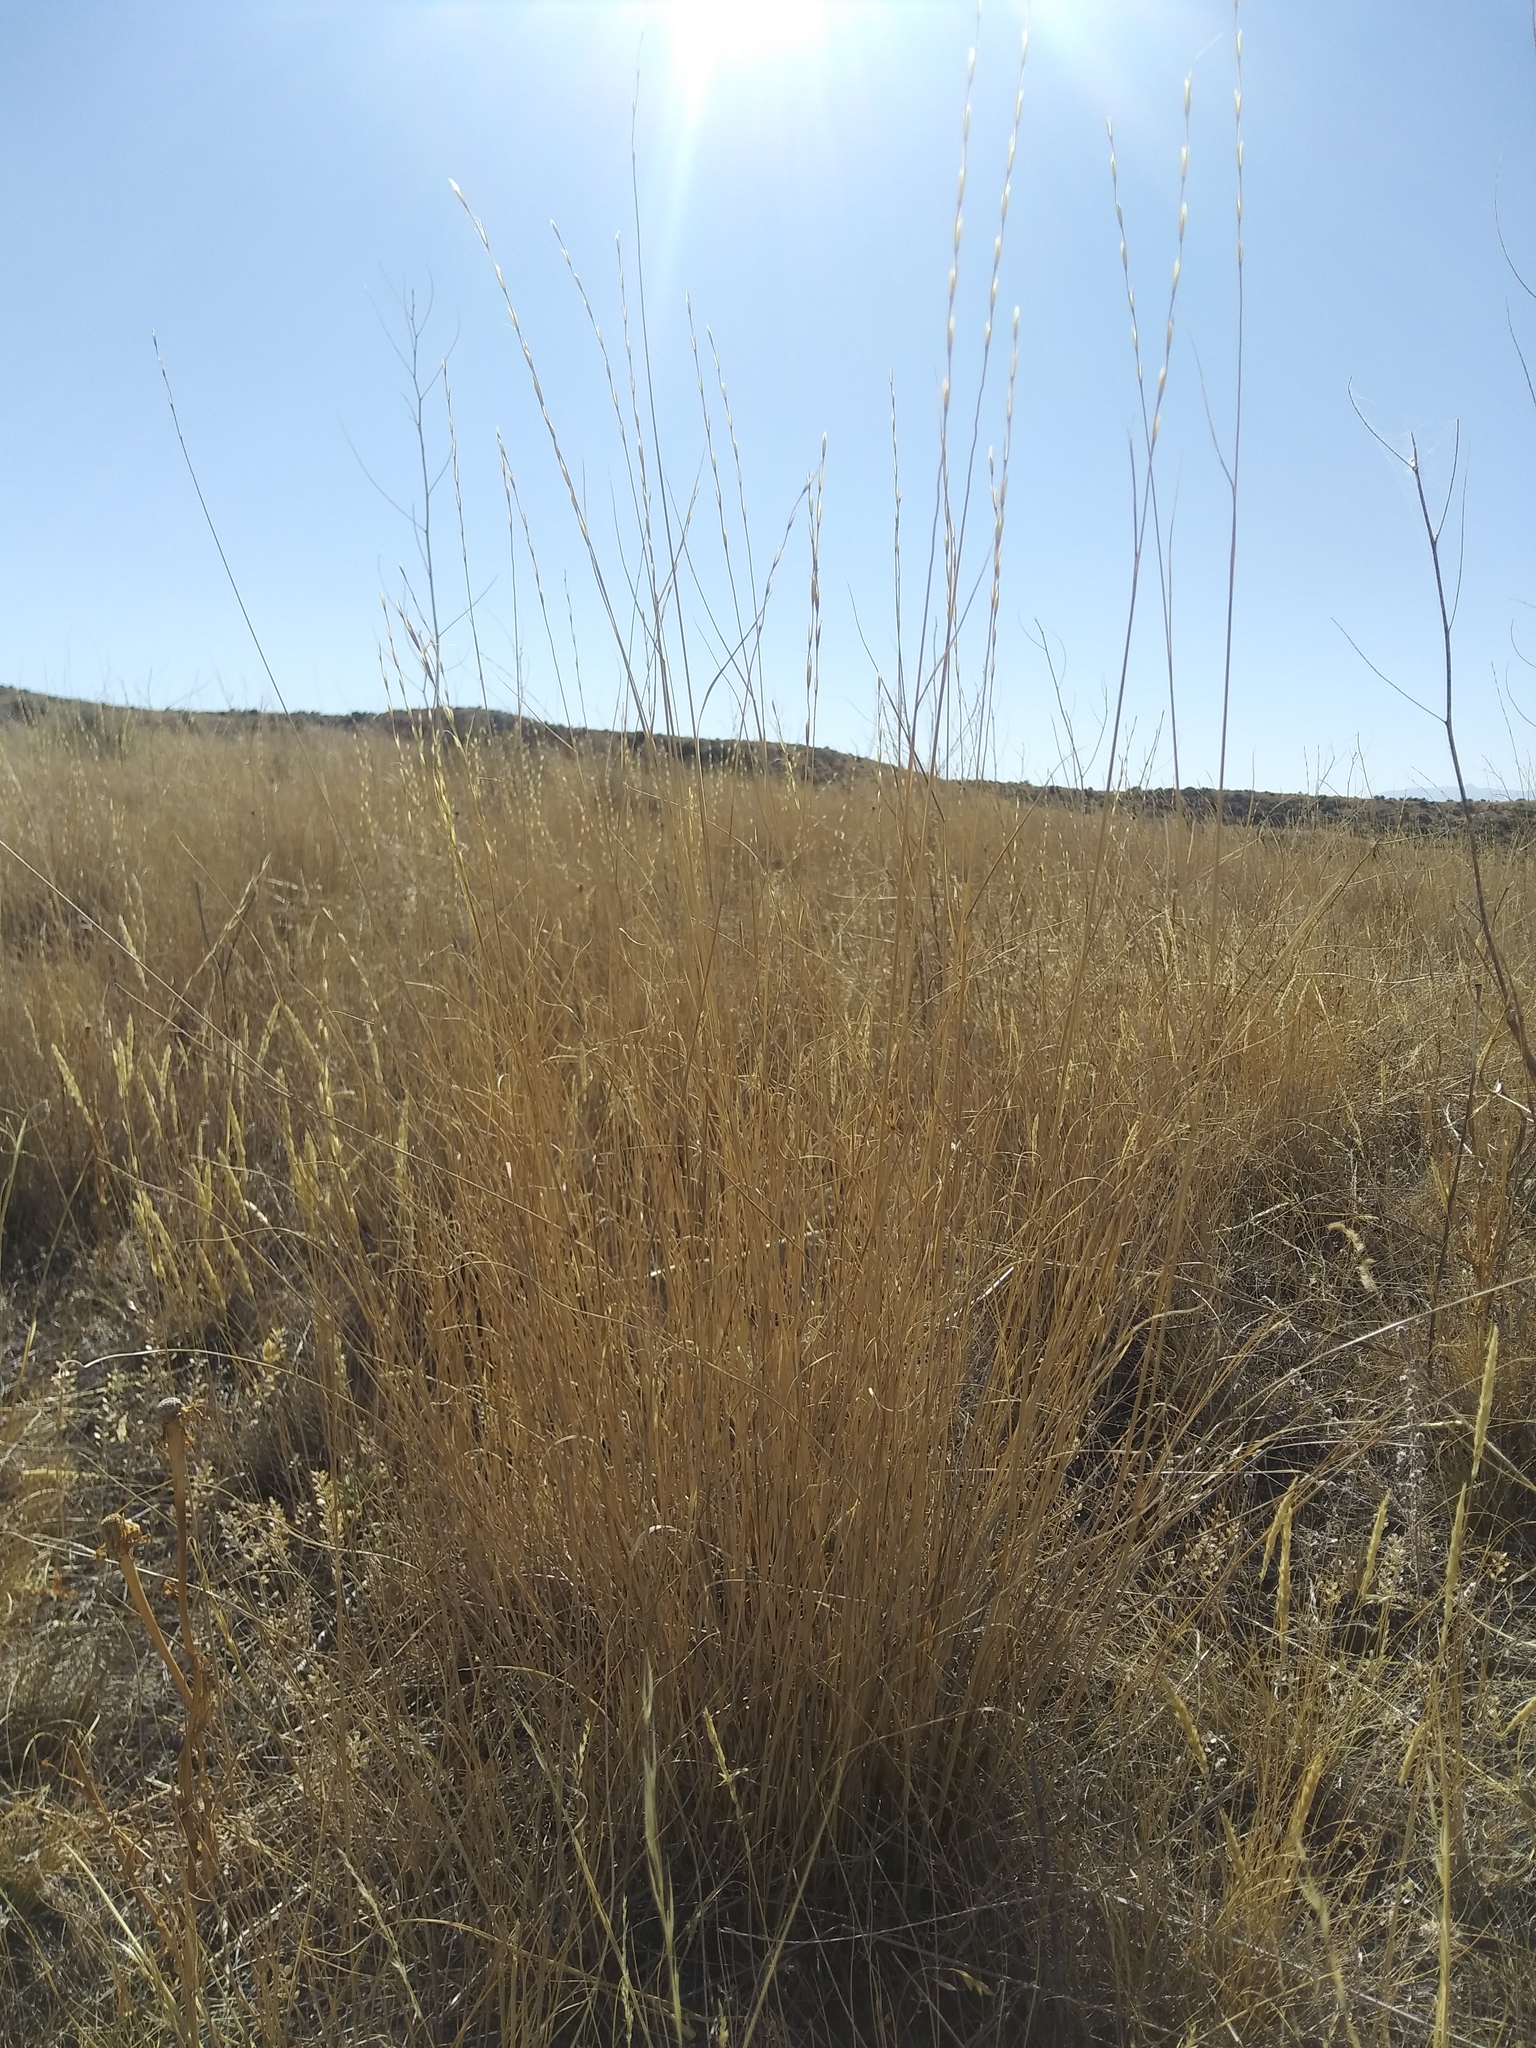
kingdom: Plantae
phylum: Tracheophyta
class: Liliopsida
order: Poales
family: Poaceae
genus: Pseudoroegneria
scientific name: Pseudoroegneria spicata
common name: Bluebunch wheatgrass
